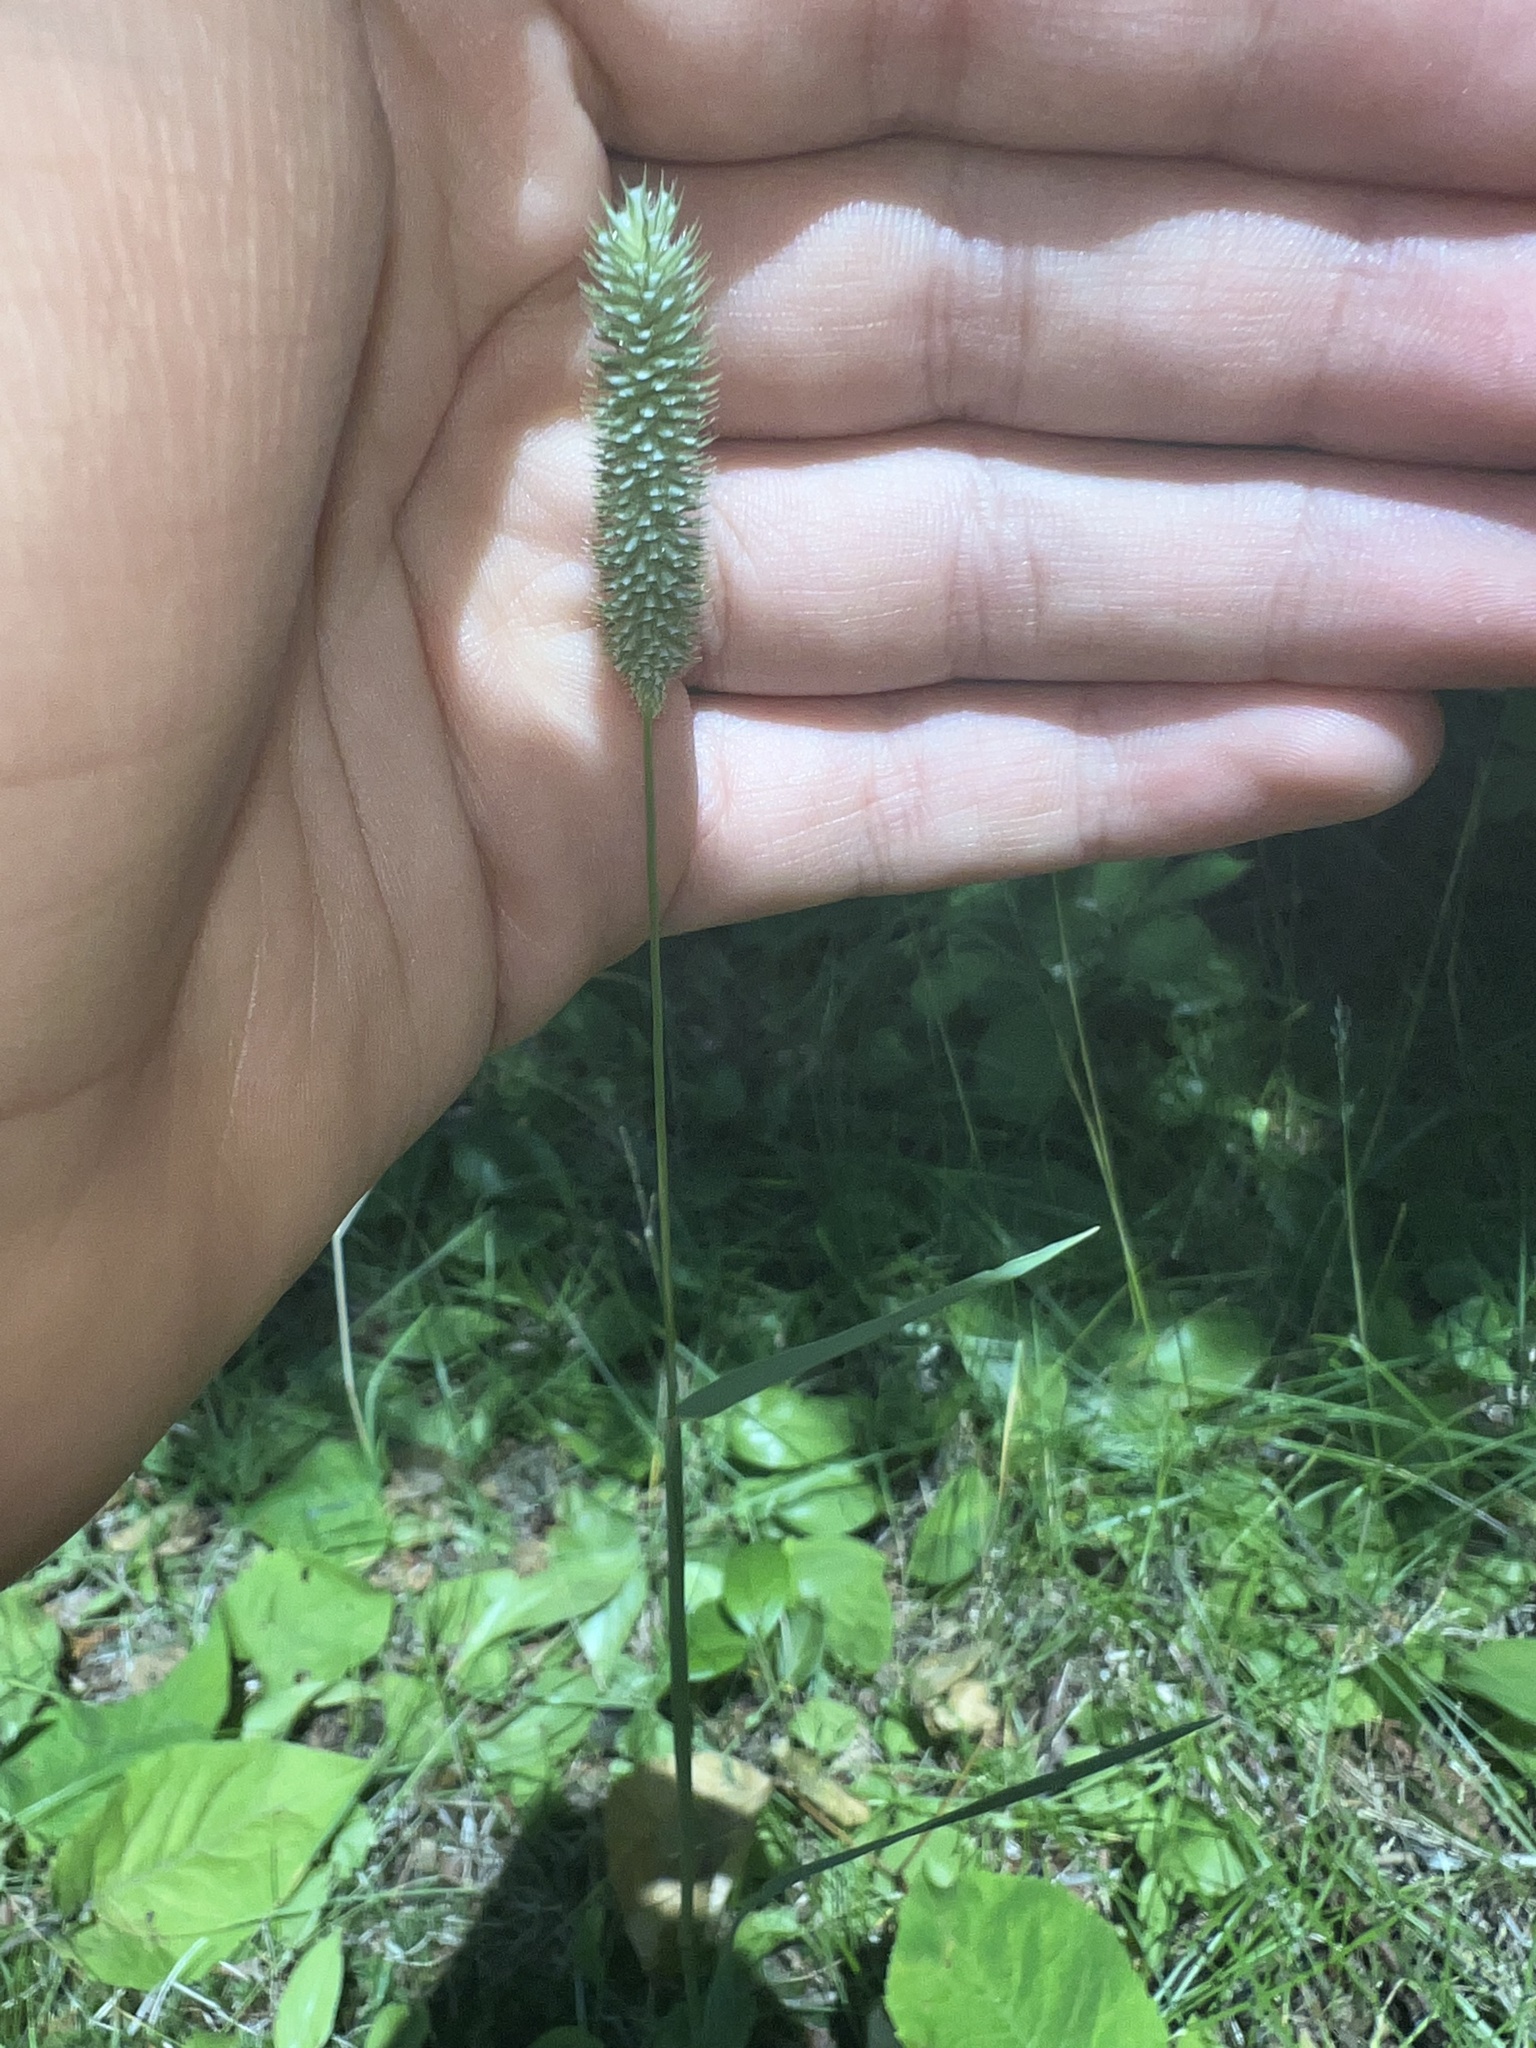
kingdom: Plantae
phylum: Tracheophyta
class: Liliopsida
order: Poales
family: Poaceae
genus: Phleum
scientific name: Phleum pratense
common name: Timothy grass
